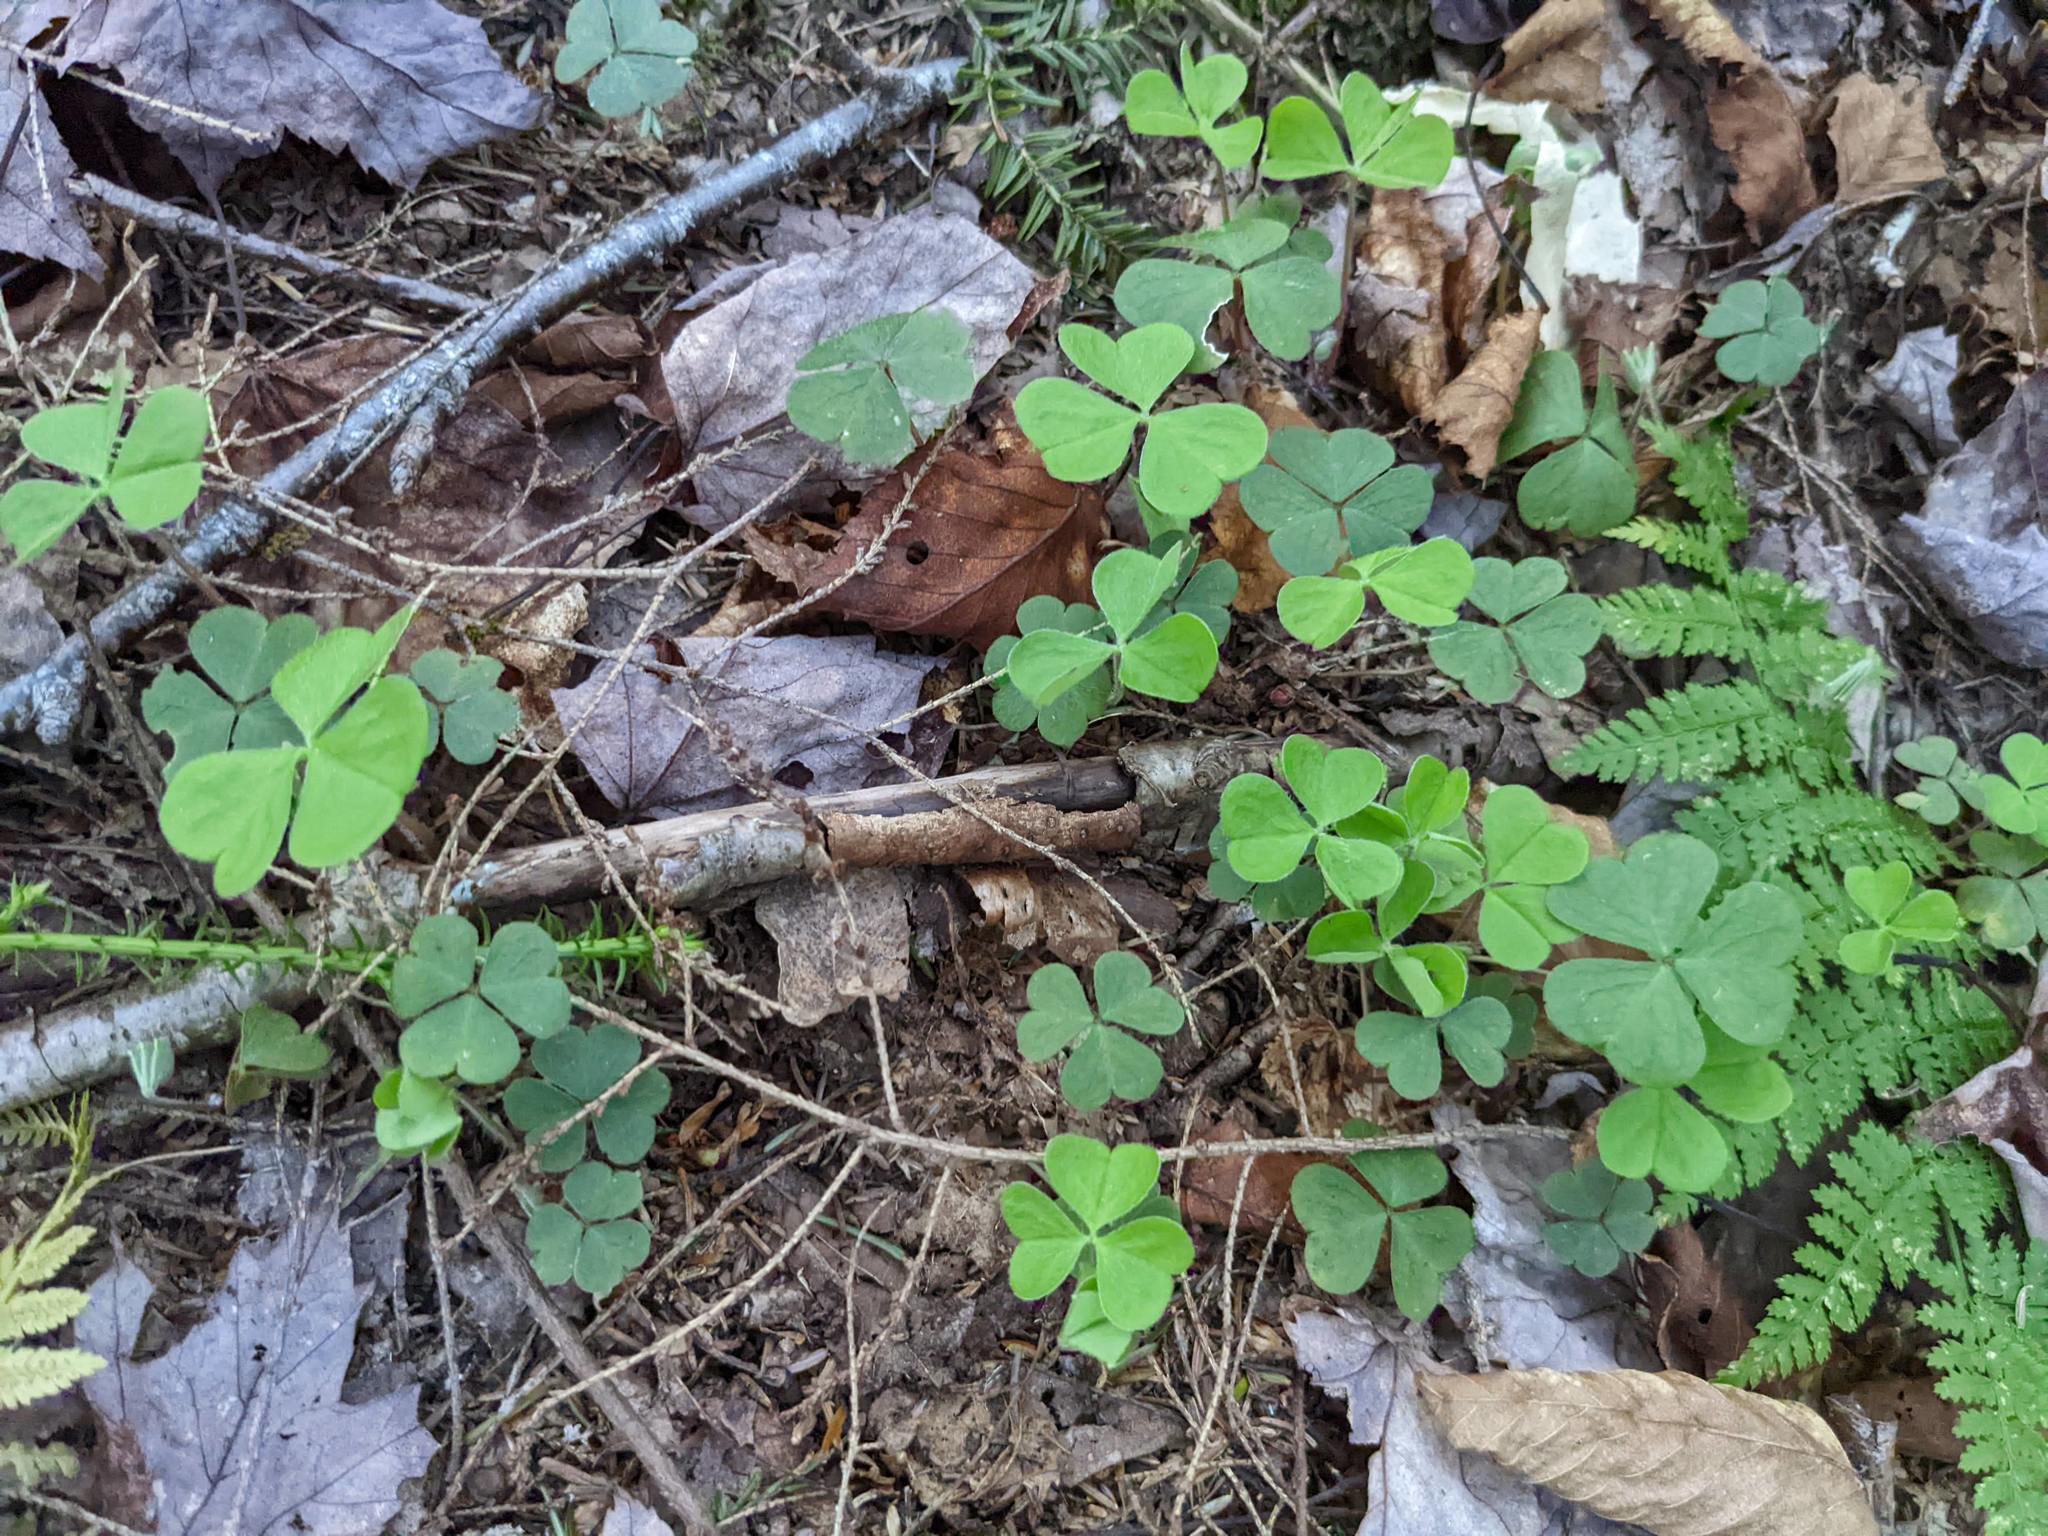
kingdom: Plantae
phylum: Tracheophyta
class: Magnoliopsida
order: Oxalidales
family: Oxalidaceae
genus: Oxalis
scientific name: Oxalis montana
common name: American wood-sorrel
